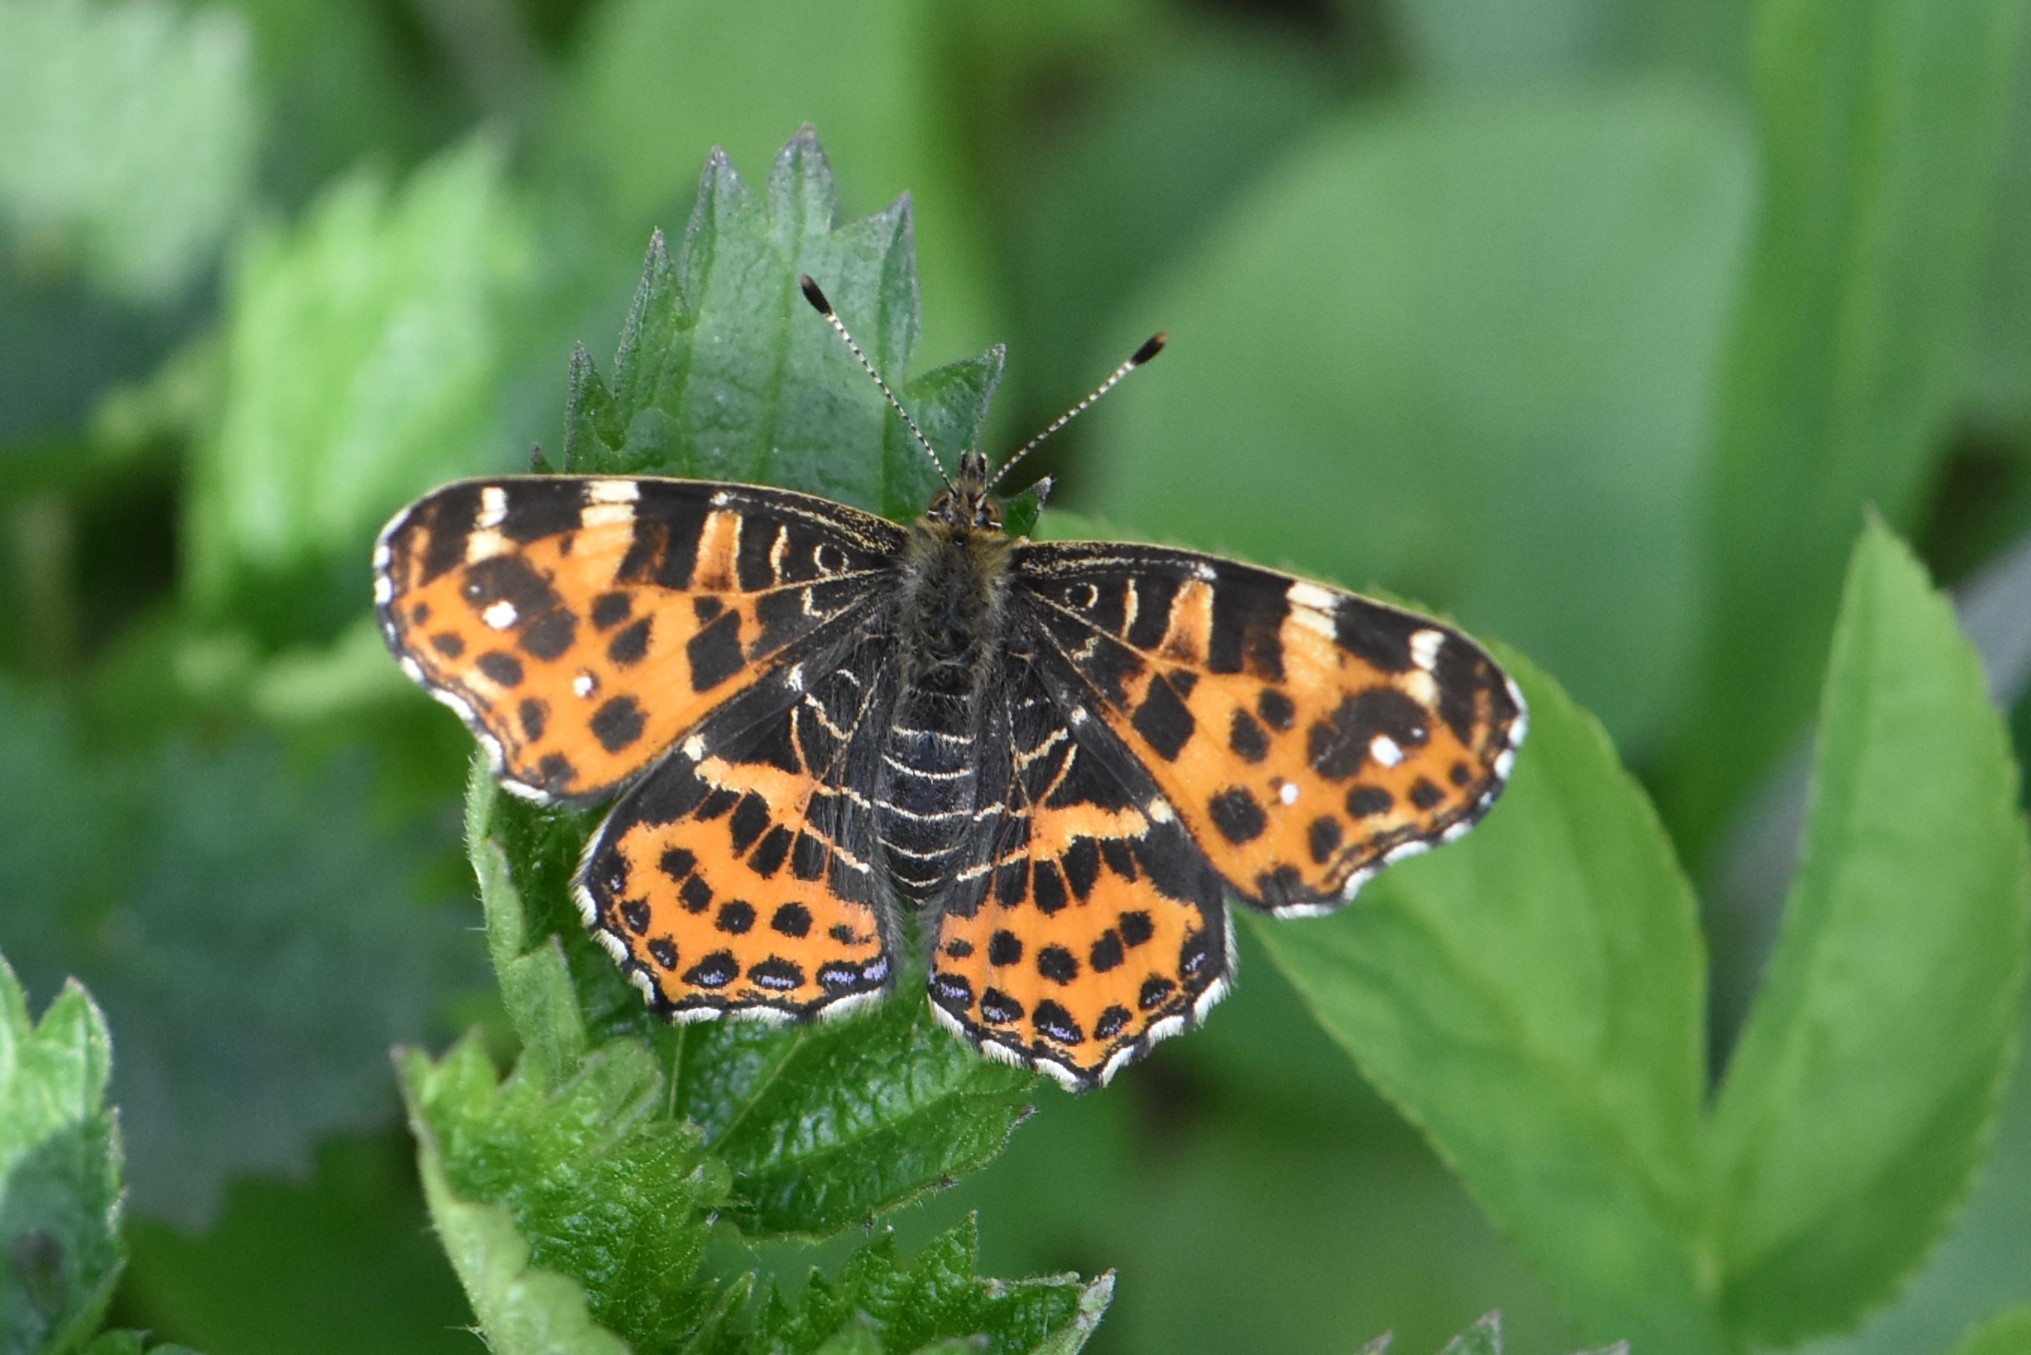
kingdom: Animalia
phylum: Arthropoda
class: Insecta
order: Lepidoptera
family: Nymphalidae
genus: Araschnia
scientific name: Araschnia levana
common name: Map butterfly
